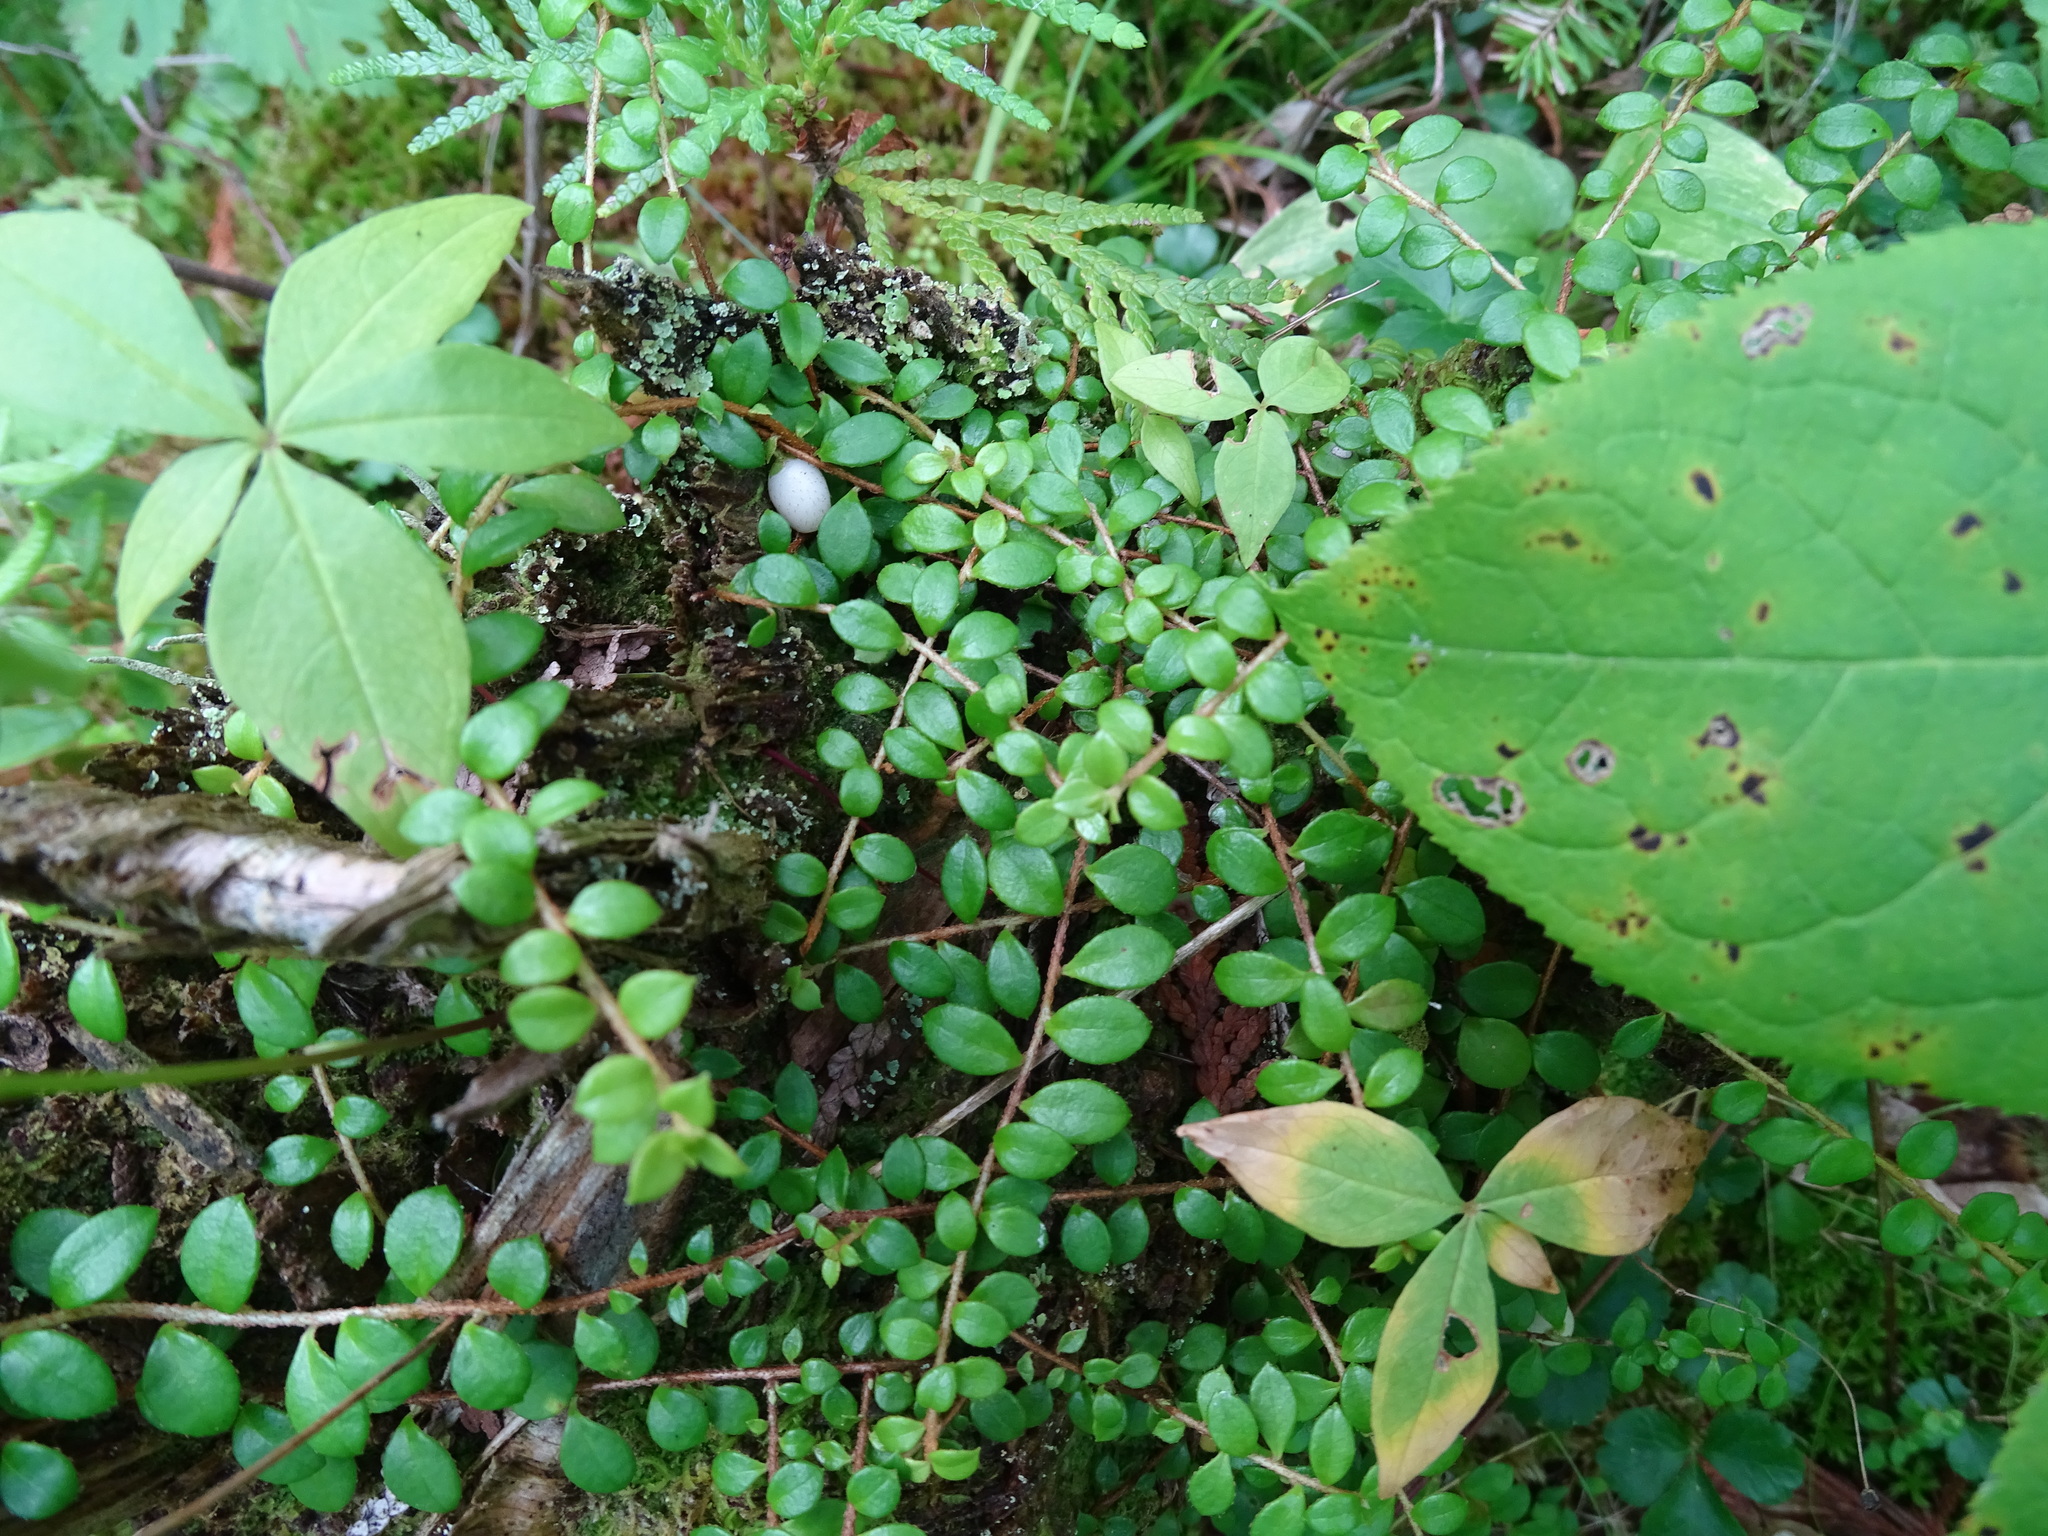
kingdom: Plantae
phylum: Tracheophyta
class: Magnoliopsida
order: Ericales
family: Ericaceae
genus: Gaultheria
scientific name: Gaultheria hispidula
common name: Cancer wintergreen
